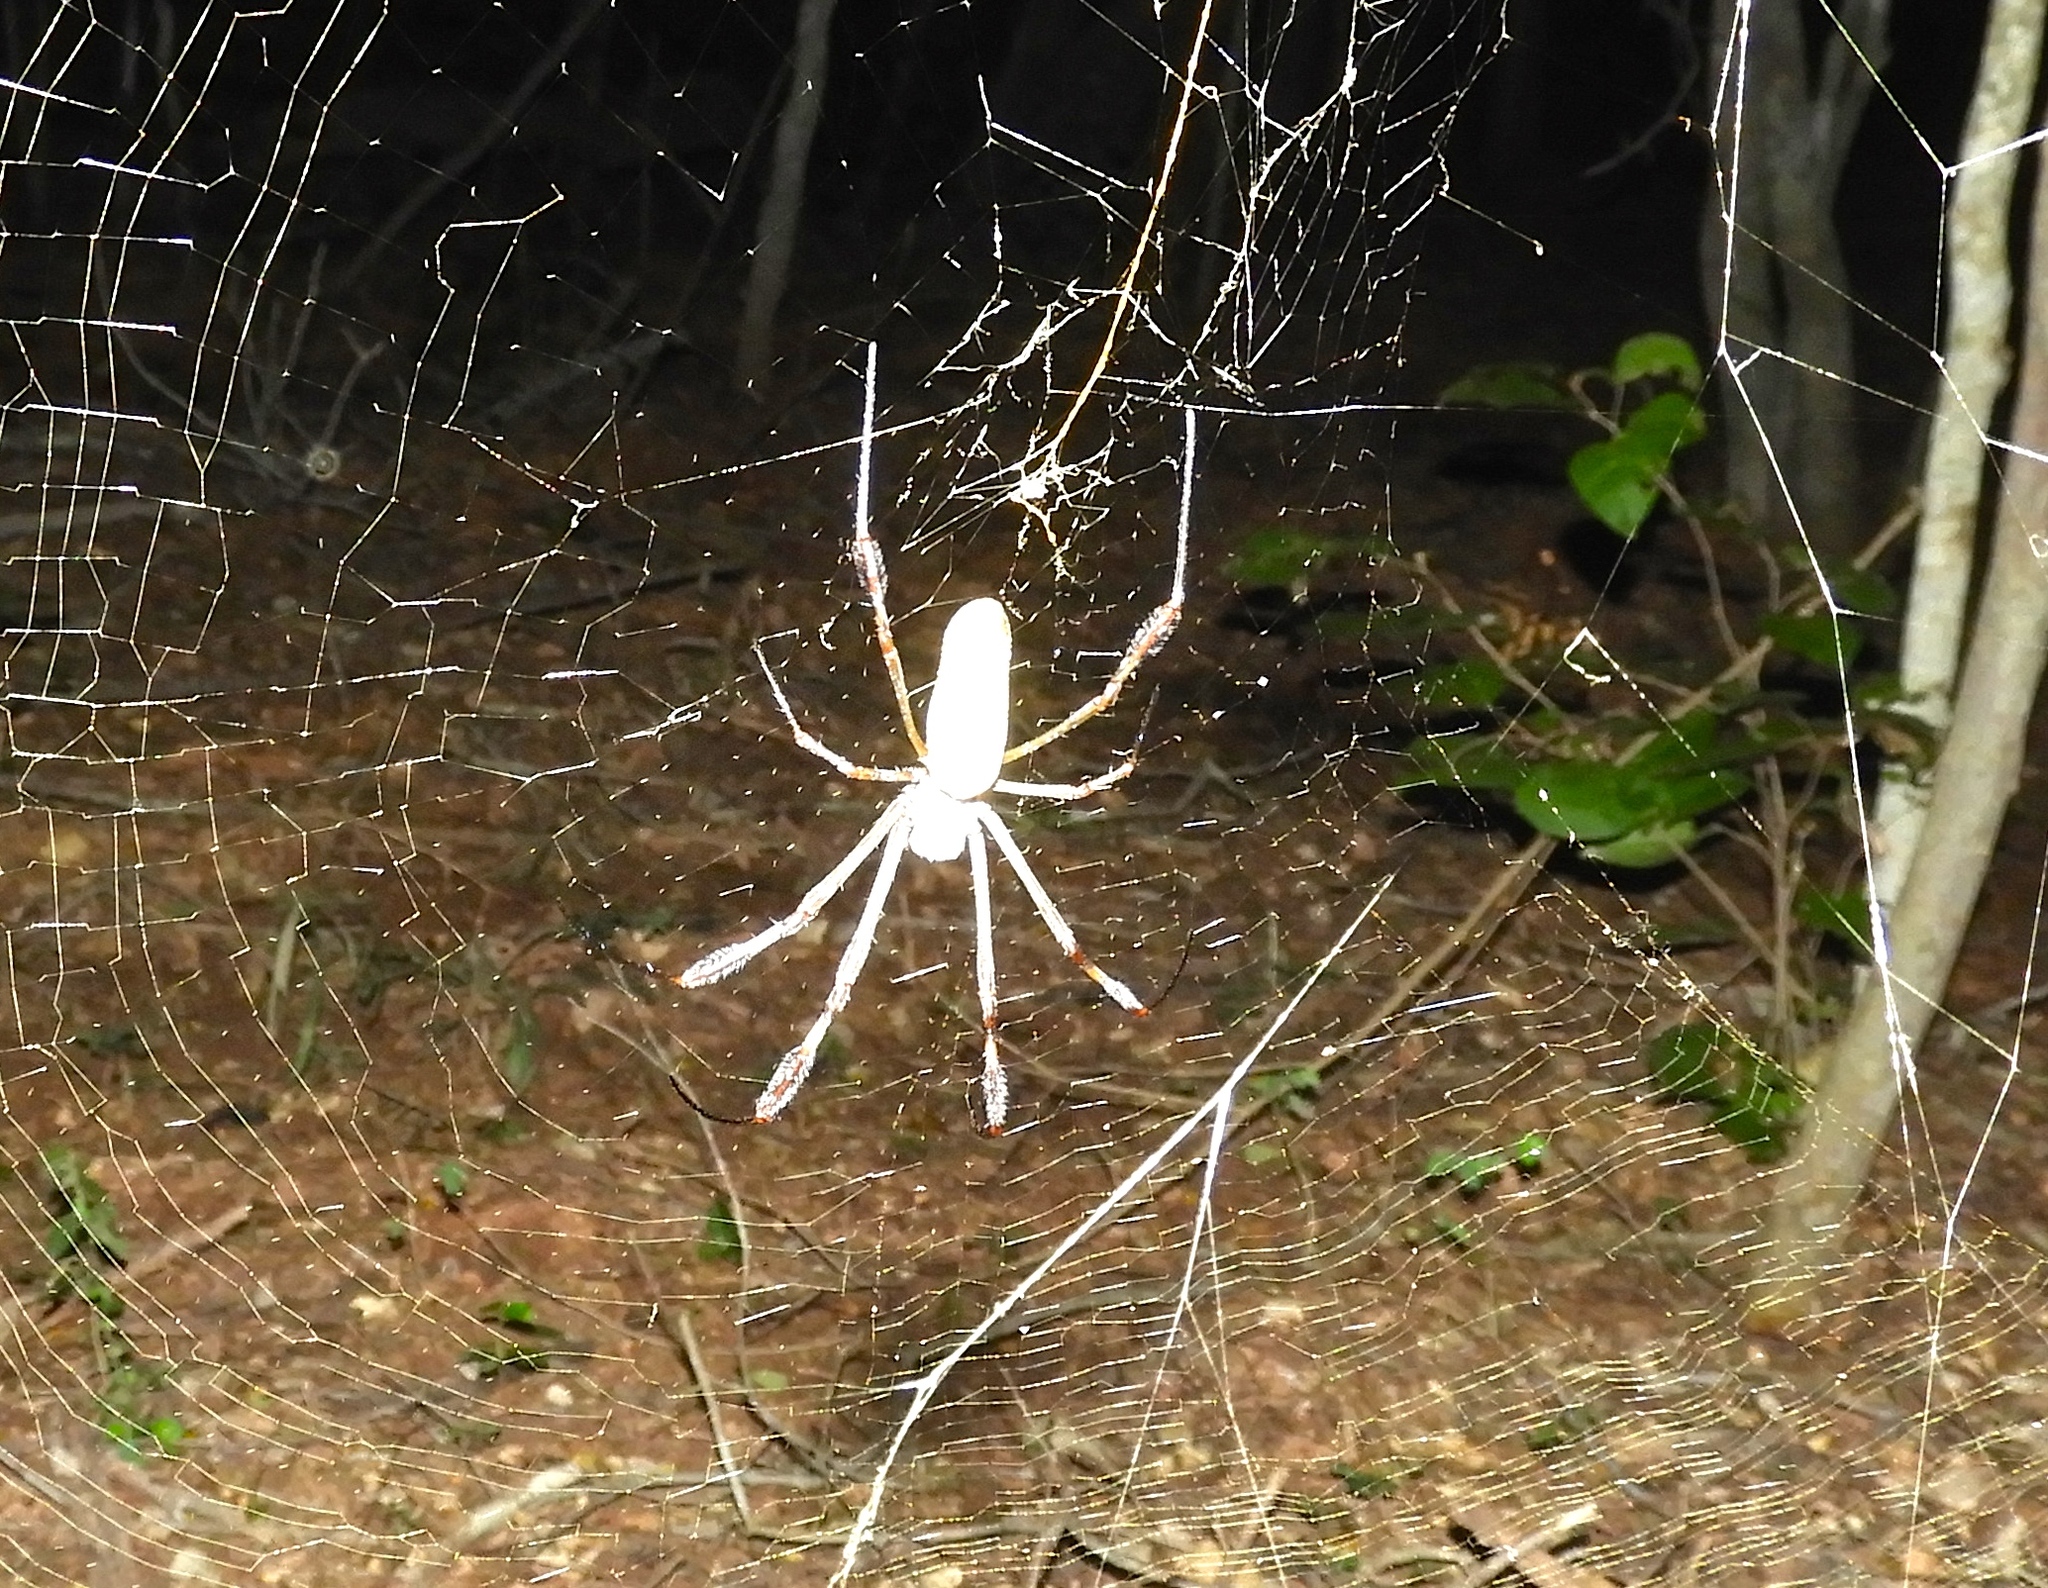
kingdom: Animalia
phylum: Arthropoda
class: Arachnida
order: Araneae
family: Araneidae
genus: Trichonephila
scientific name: Trichonephila clavipes
